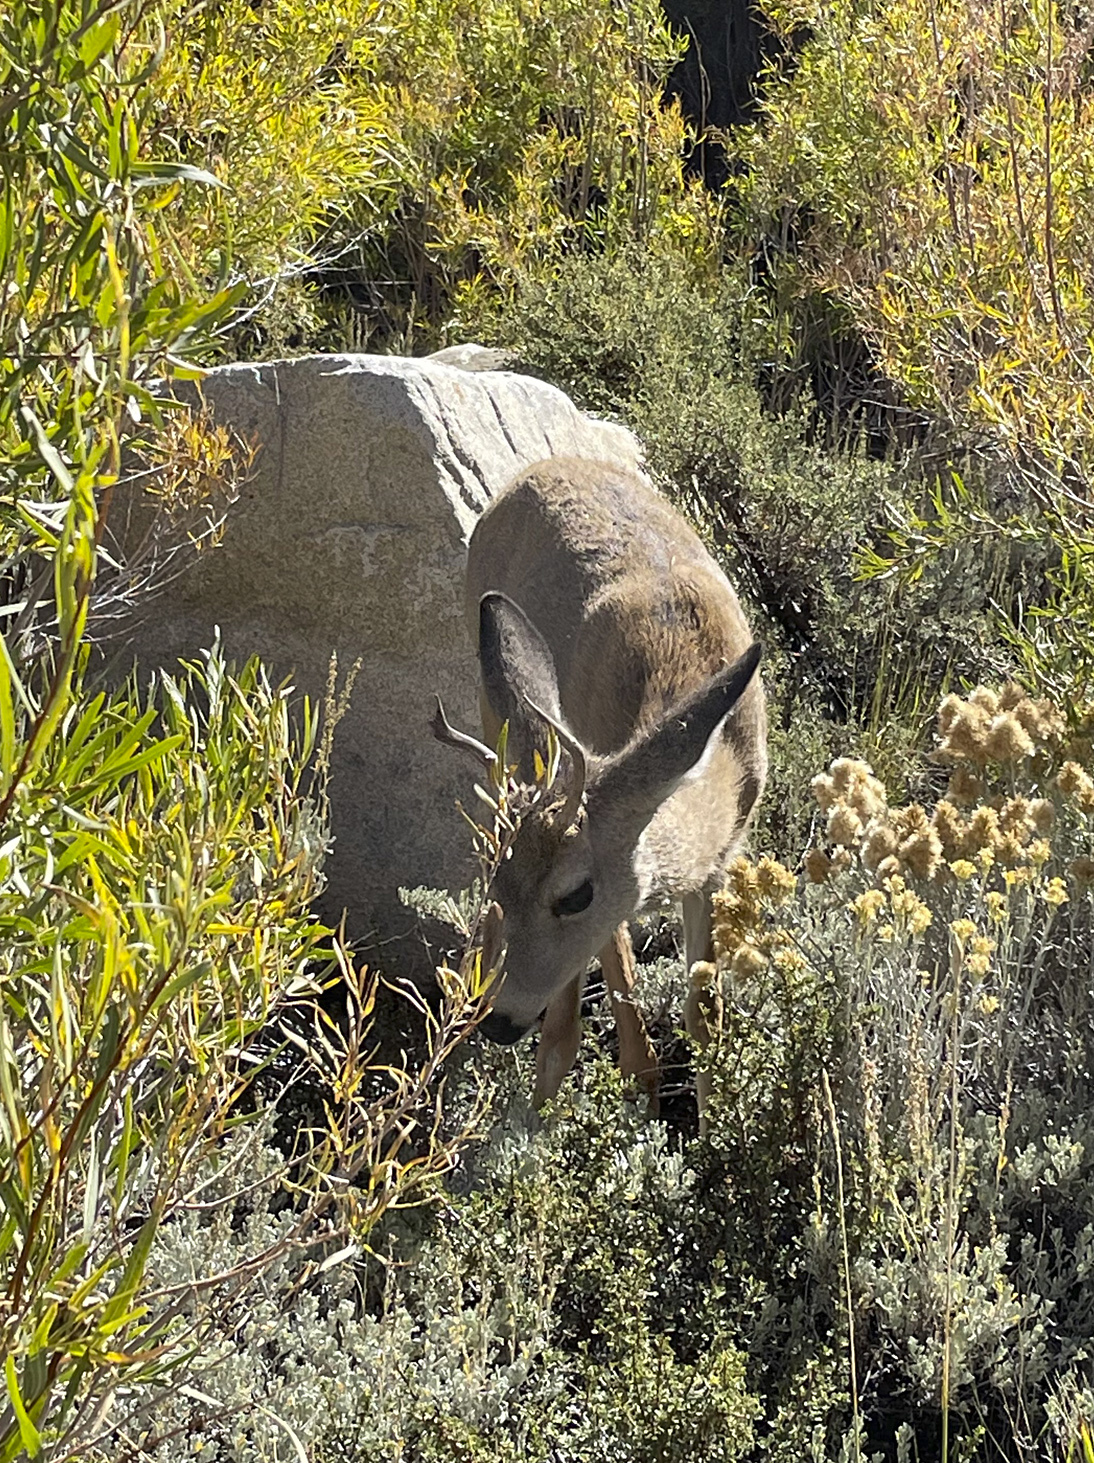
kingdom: Animalia
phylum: Chordata
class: Mammalia
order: Artiodactyla
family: Cervidae
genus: Odocoileus
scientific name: Odocoileus hemionus
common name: Mule deer
